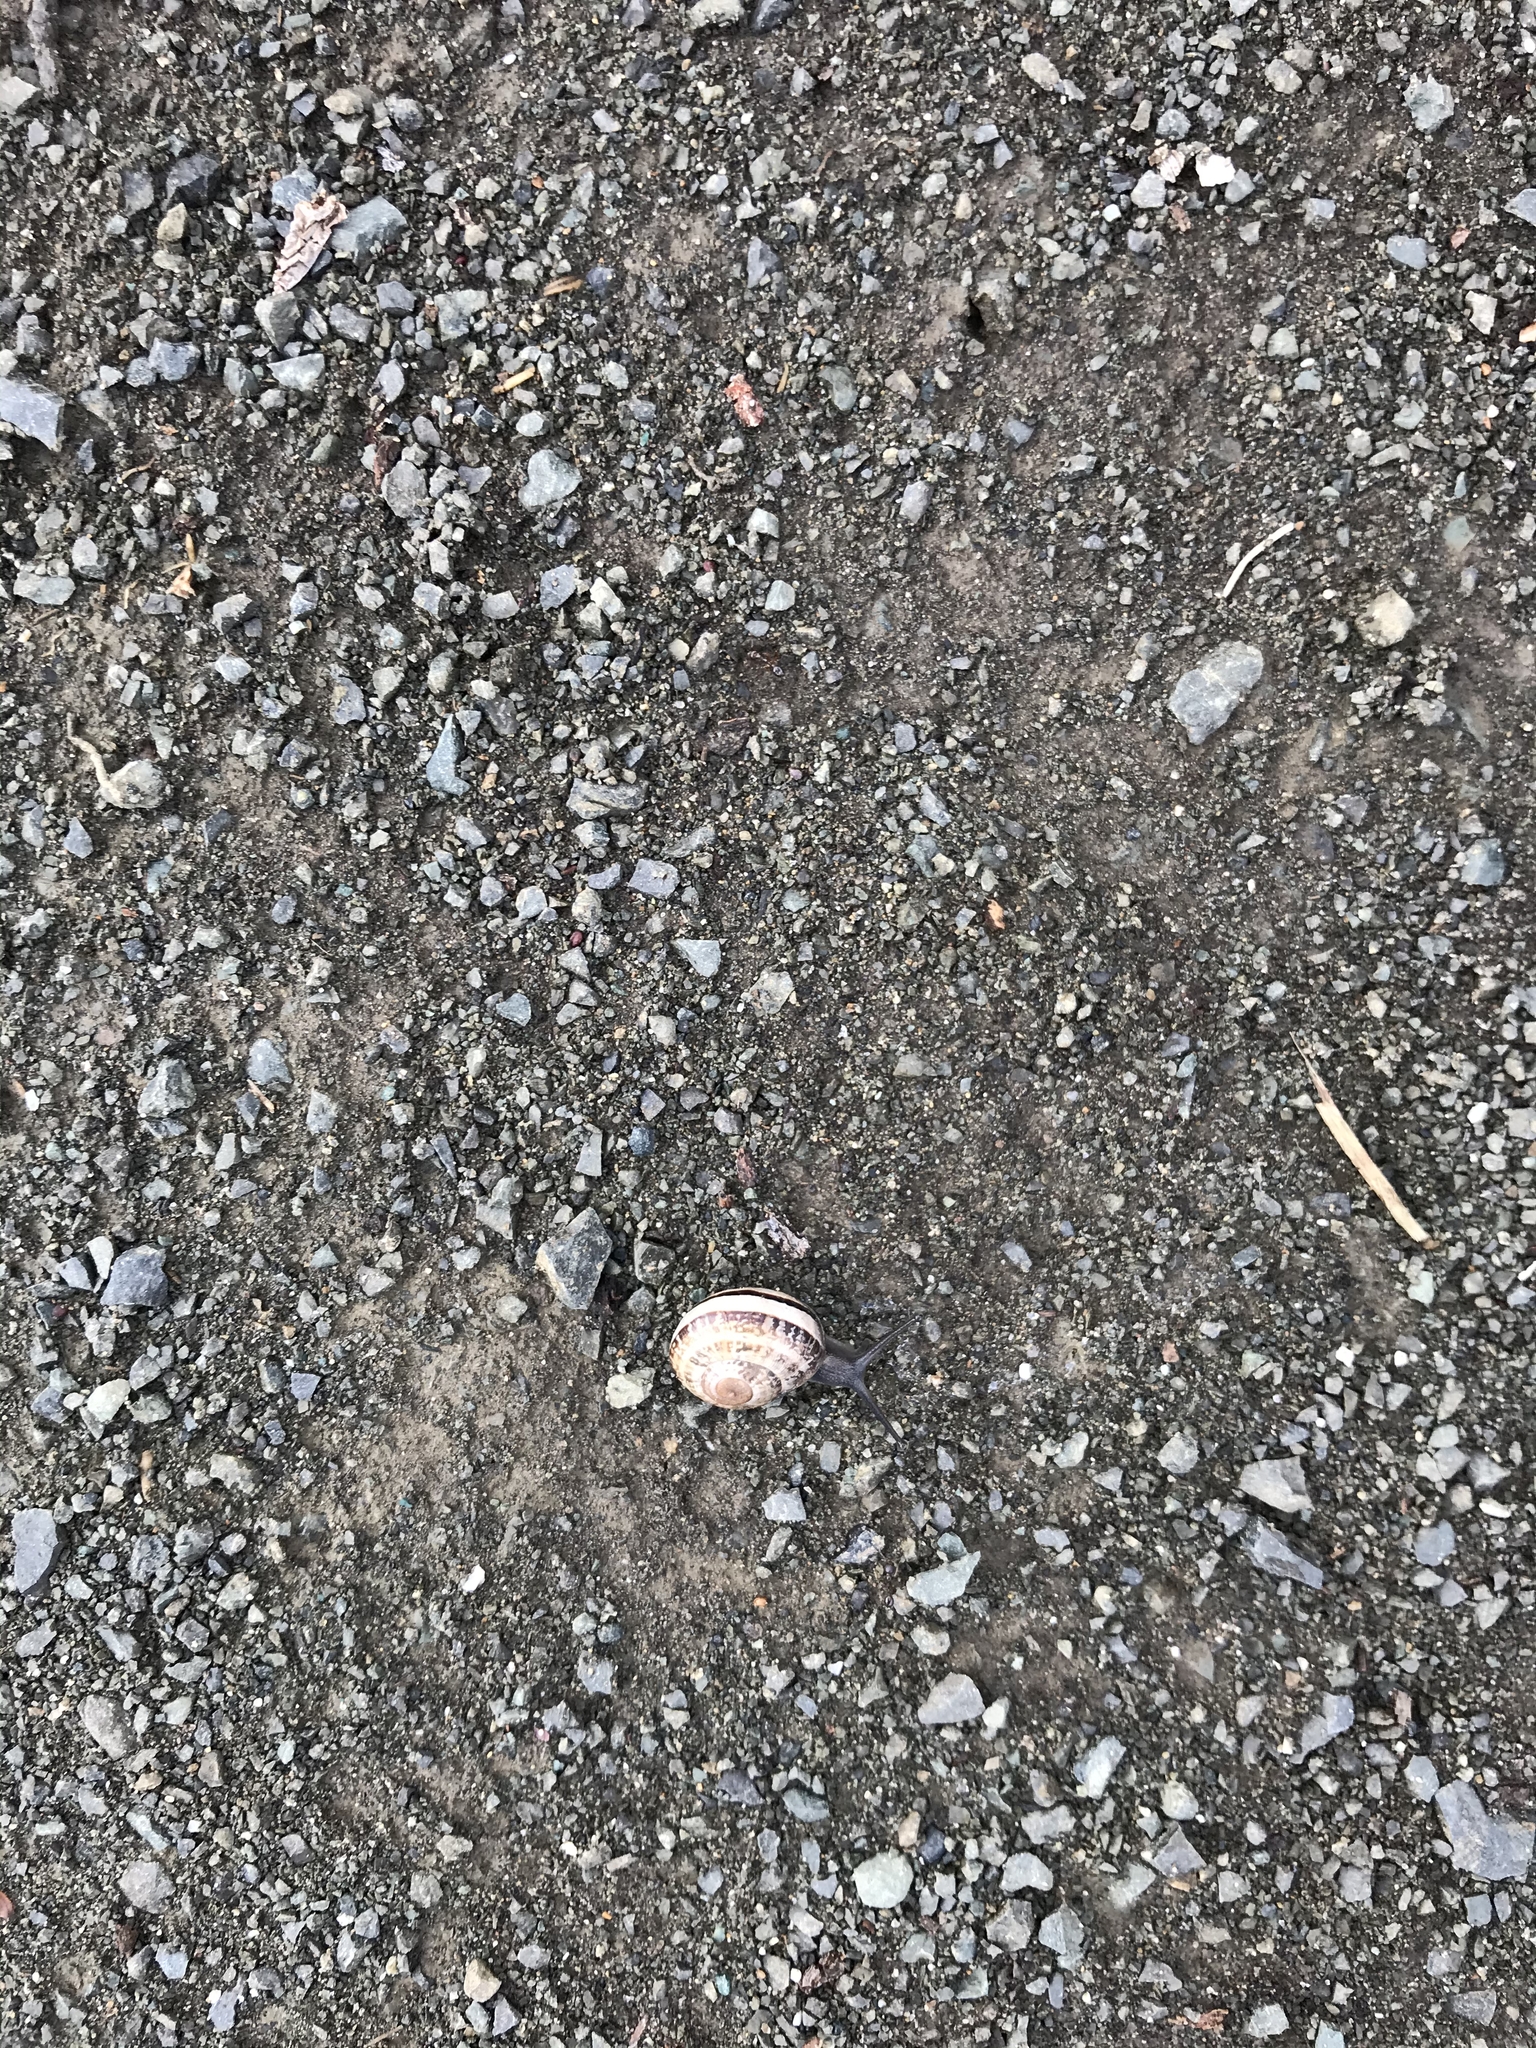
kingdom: Animalia
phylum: Mollusca
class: Gastropoda
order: Stylommatophora
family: Helicidae
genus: Otala
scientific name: Otala lactea
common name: Milk snail
